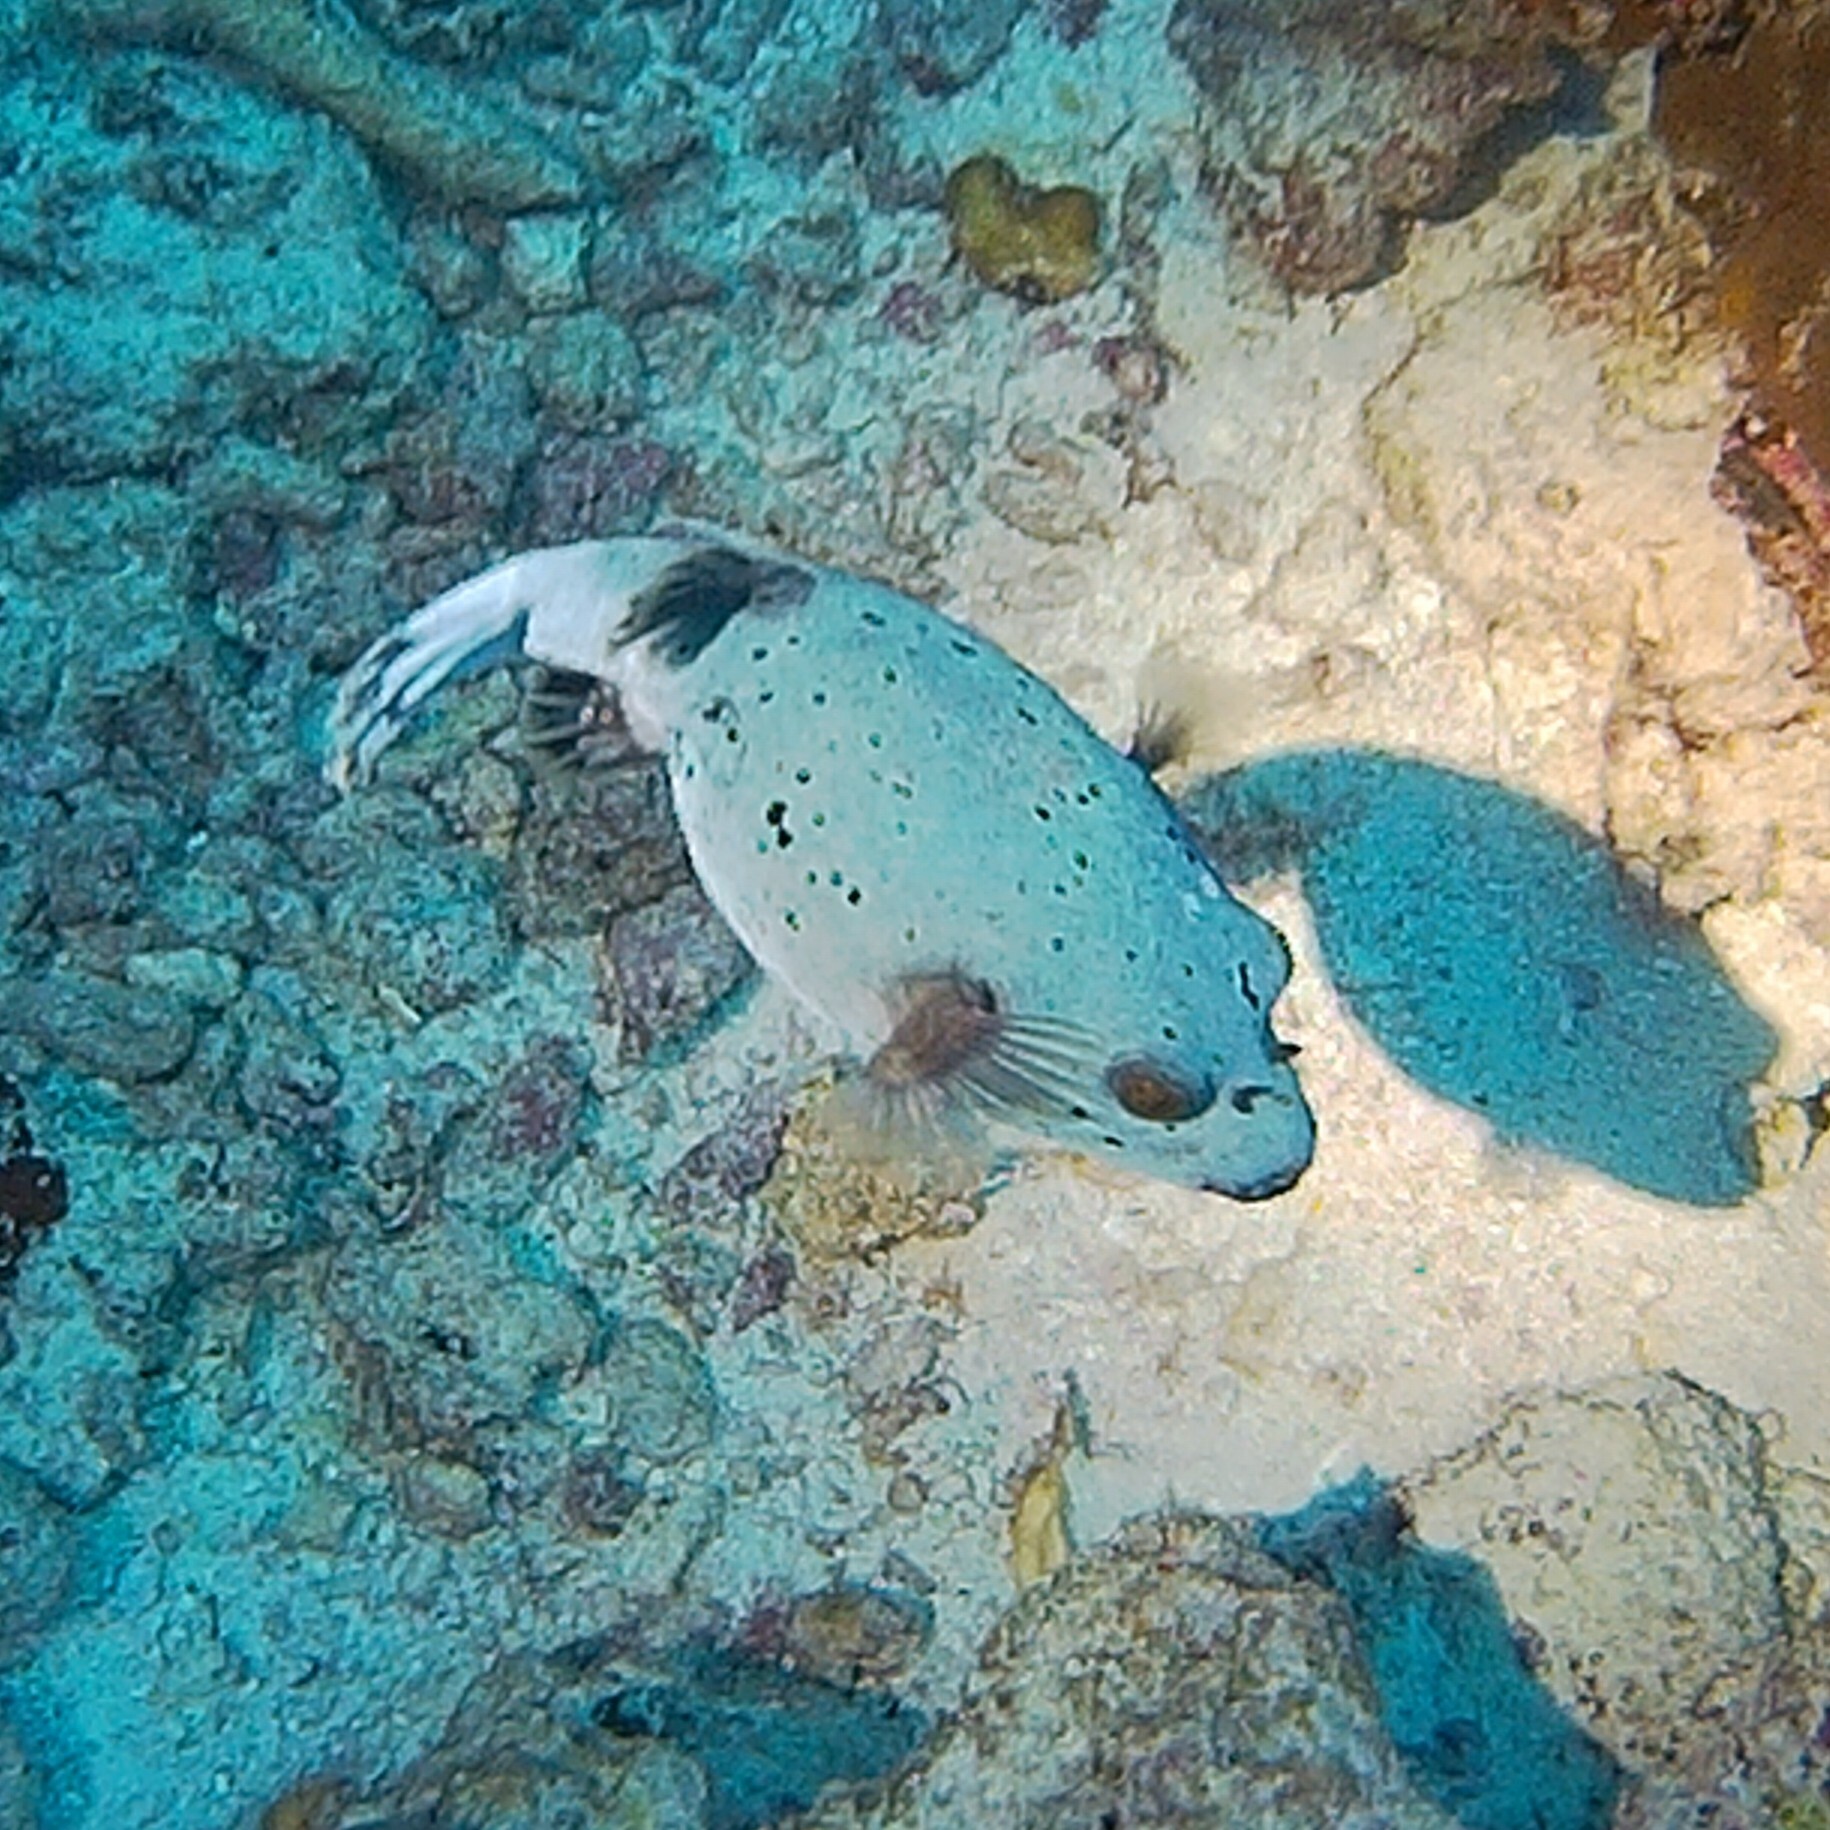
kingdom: Animalia
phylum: Chordata
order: Tetraodontiformes
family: Tetraodontidae
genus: Arothron
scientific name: Arothron nigropunctatus
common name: Black spotted blow fish
